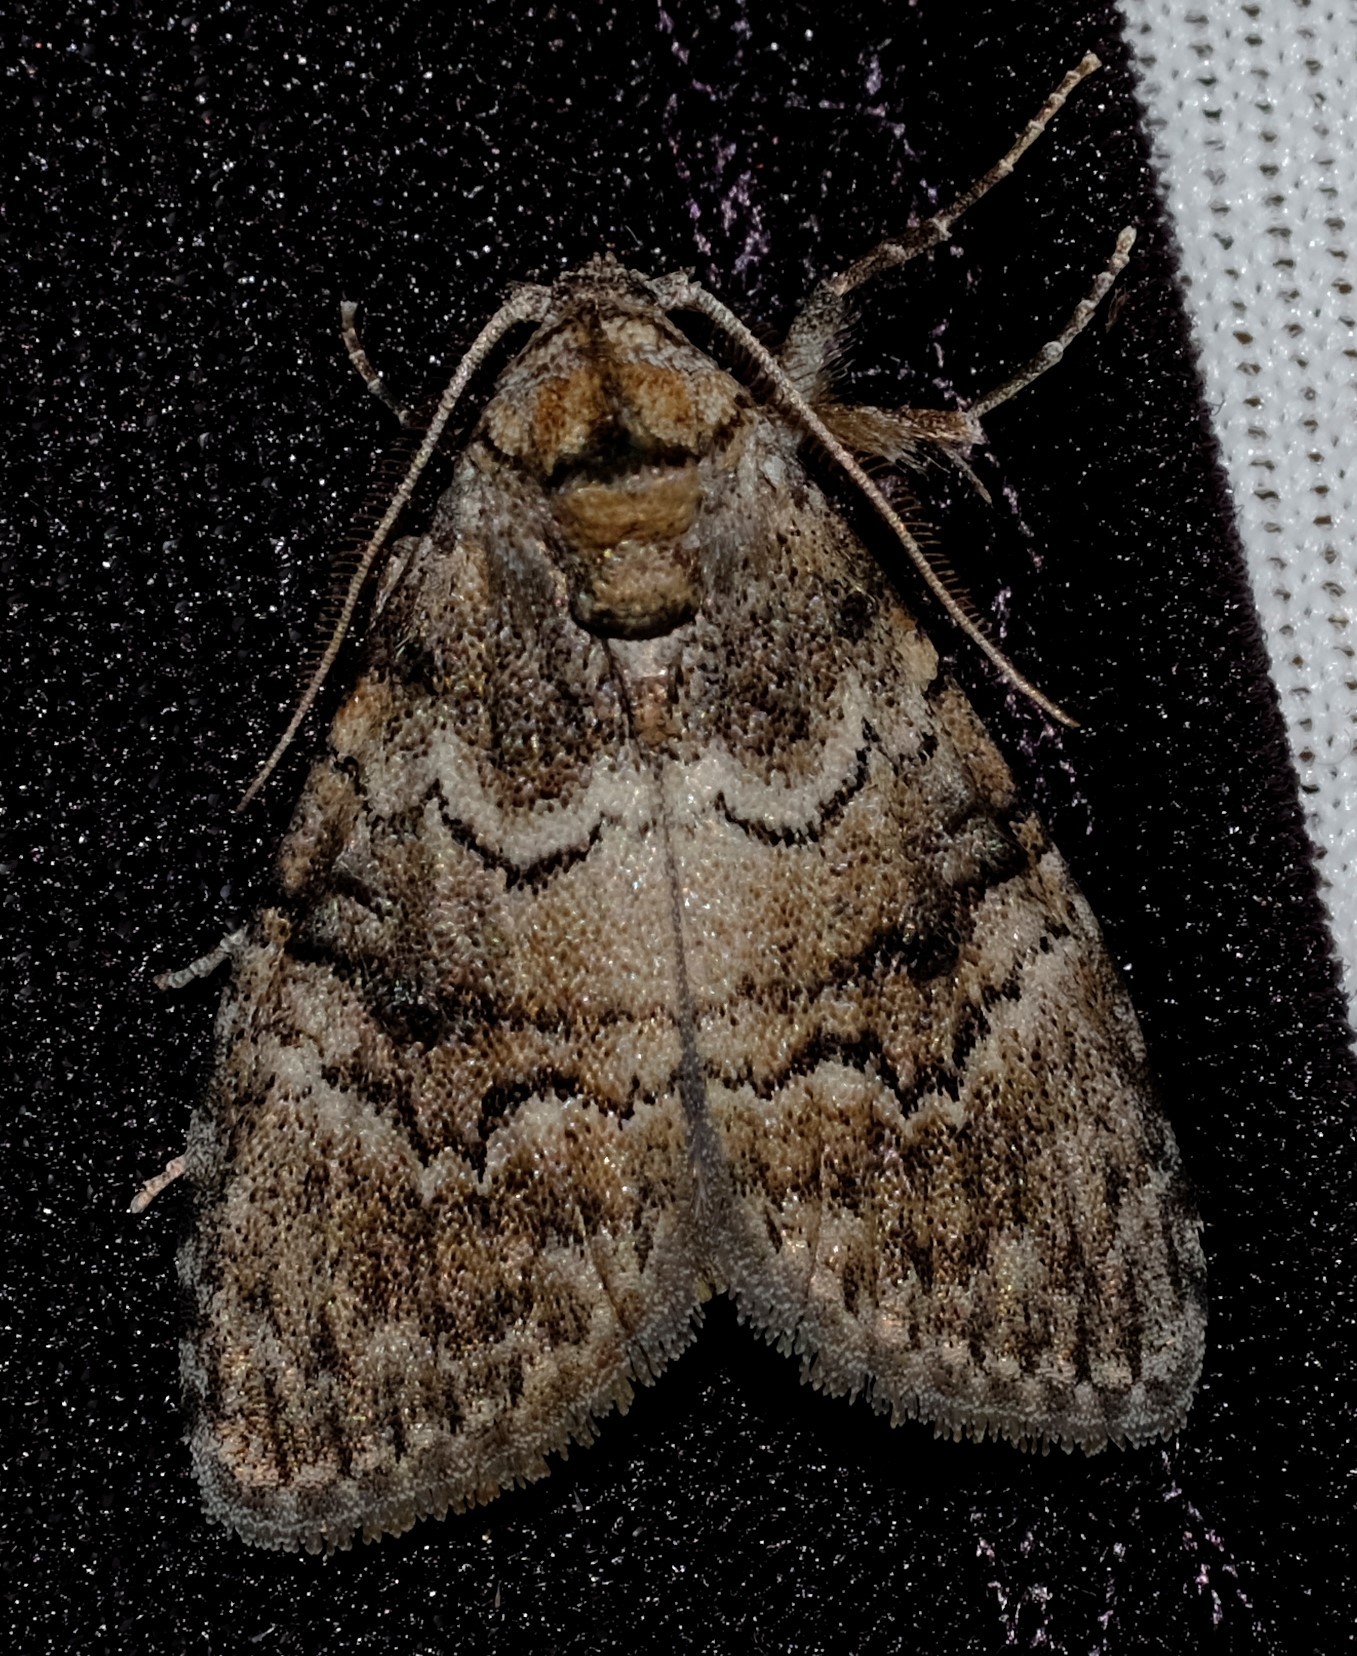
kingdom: Animalia
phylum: Arthropoda
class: Insecta
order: Lepidoptera
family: Nolidae
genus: Uraba
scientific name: Uraba lugens
